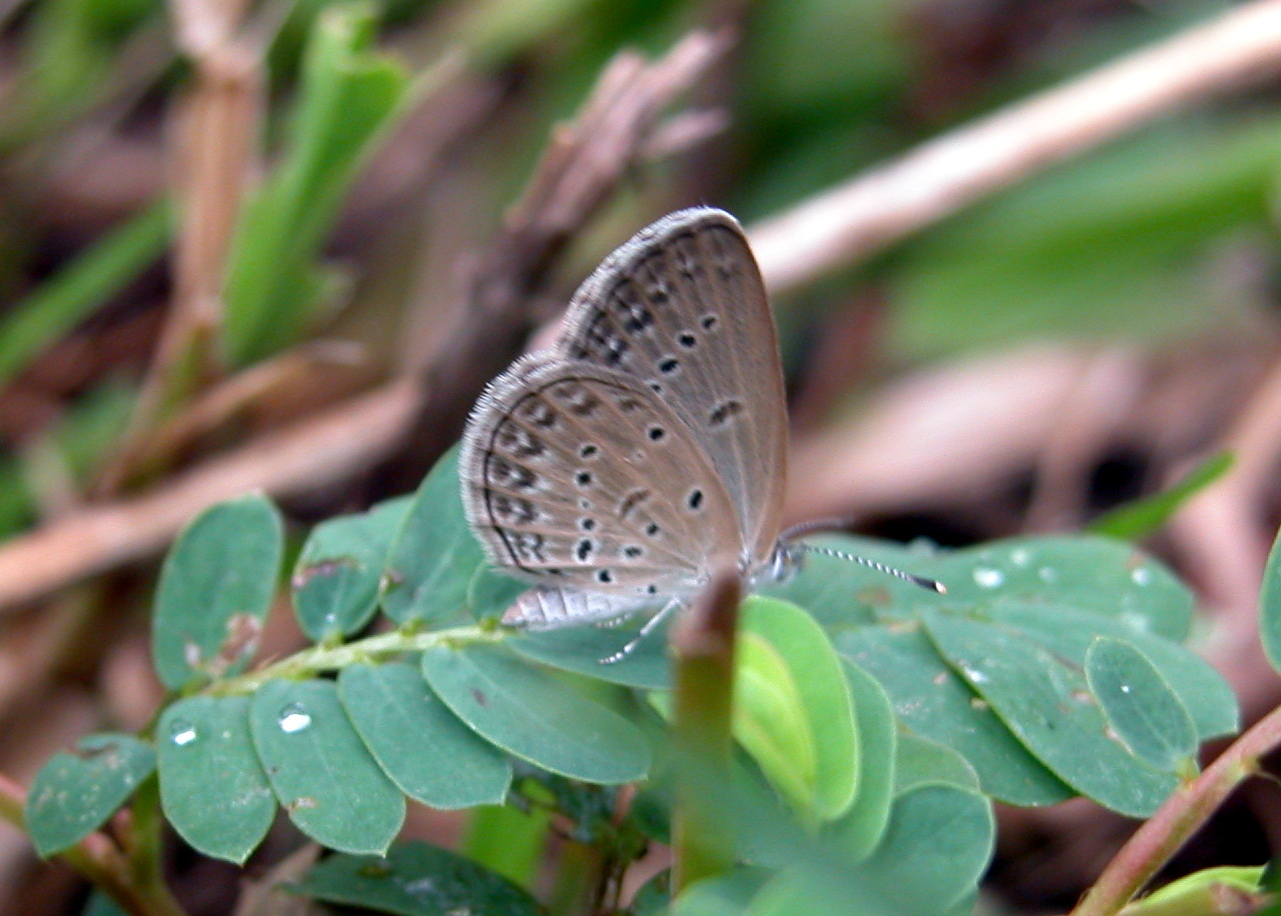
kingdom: Animalia
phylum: Arthropoda
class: Insecta
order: Lepidoptera
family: Lycaenidae
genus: Zizina
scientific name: Zizina otis
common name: Lesser grass blue
